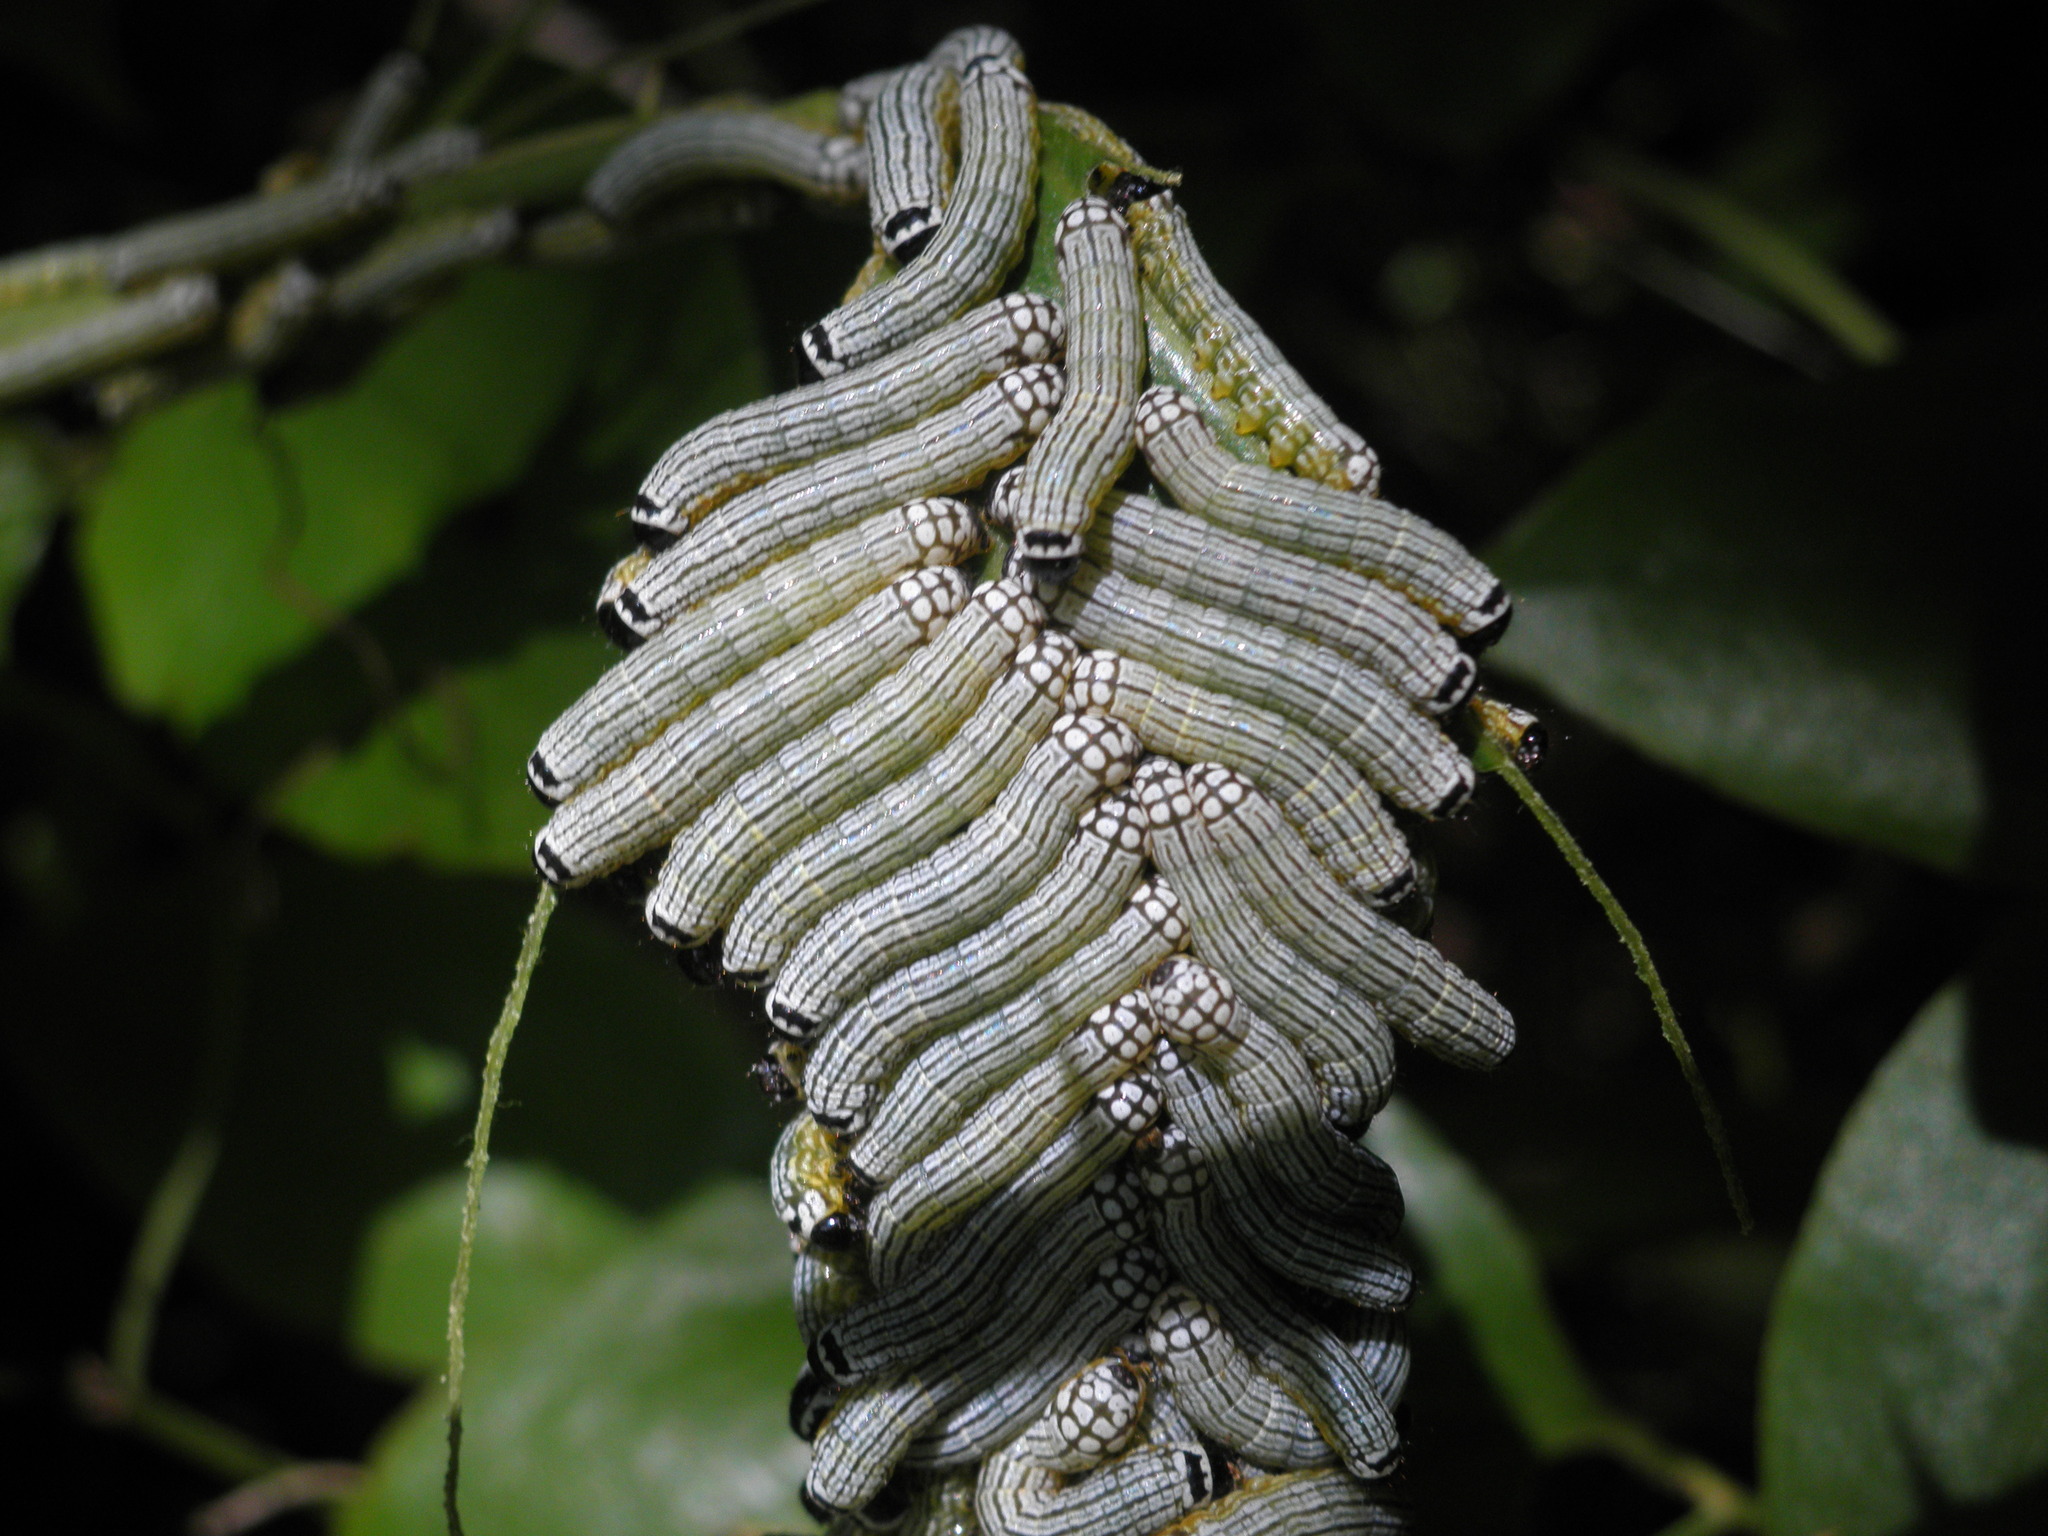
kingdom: Animalia
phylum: Arthropoda
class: Insecta
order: Lepidoptera
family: Noctuidae
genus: Phosphila
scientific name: Phosphila turbulenta
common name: Turbulent phosphila moth
